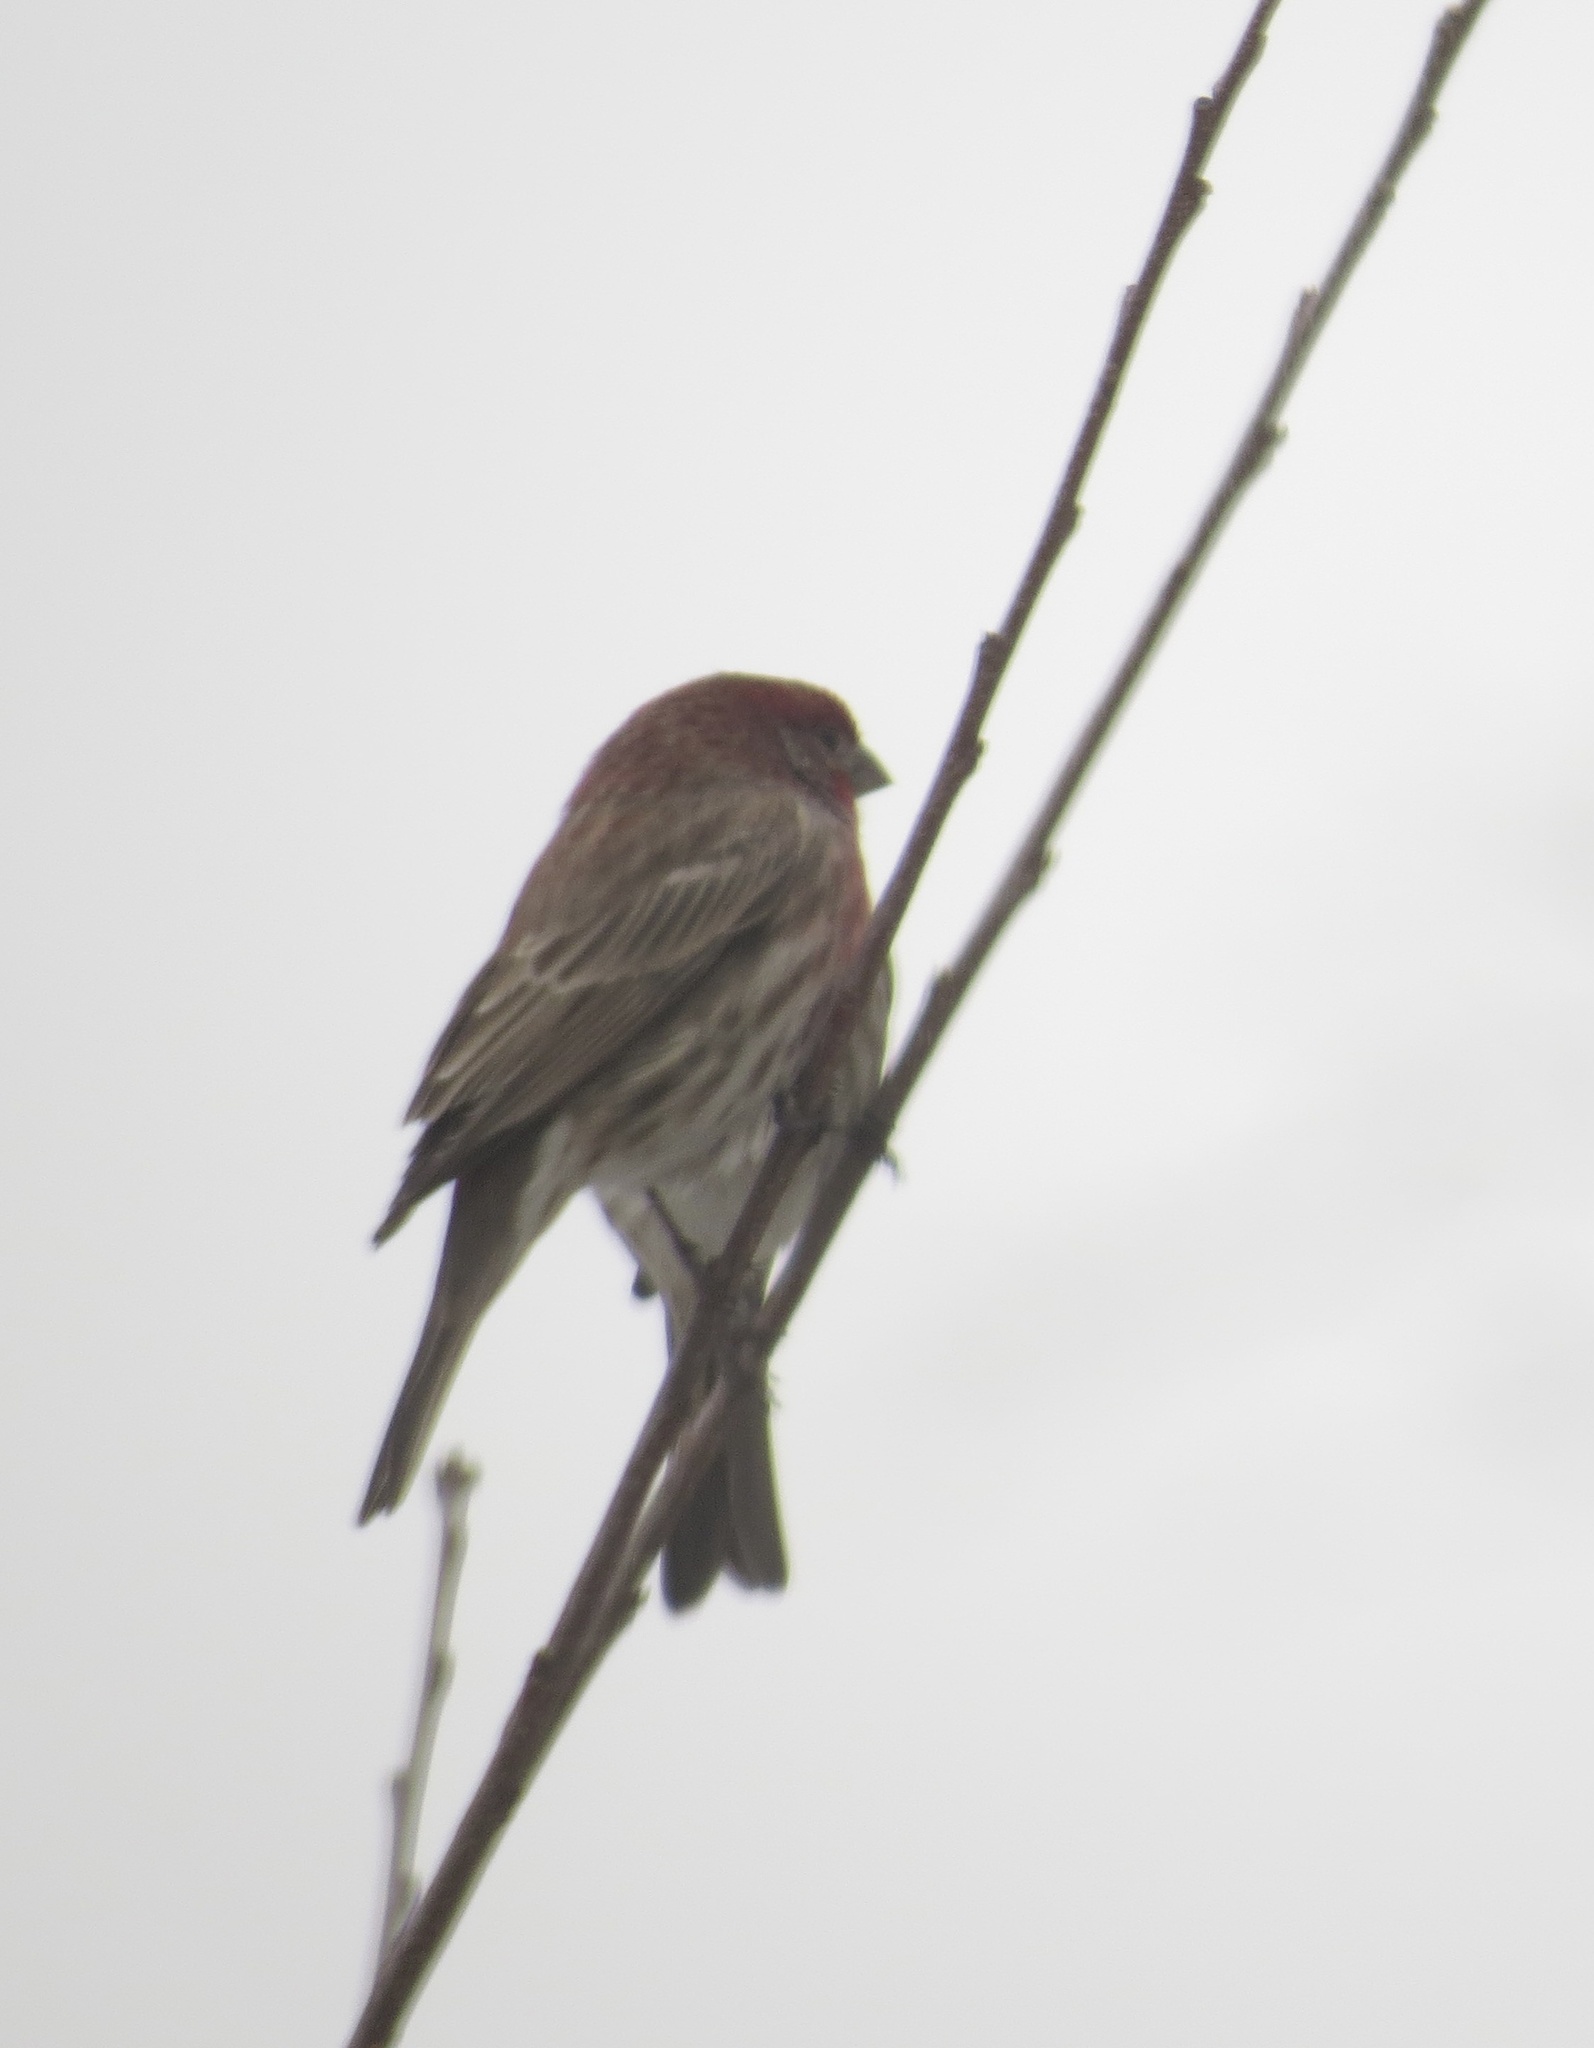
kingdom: Animalia
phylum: Chordata
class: Aves
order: Passeriformes
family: Fringillidae
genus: Haemorhous
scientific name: Haemorhous mexicanus
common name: House finch
